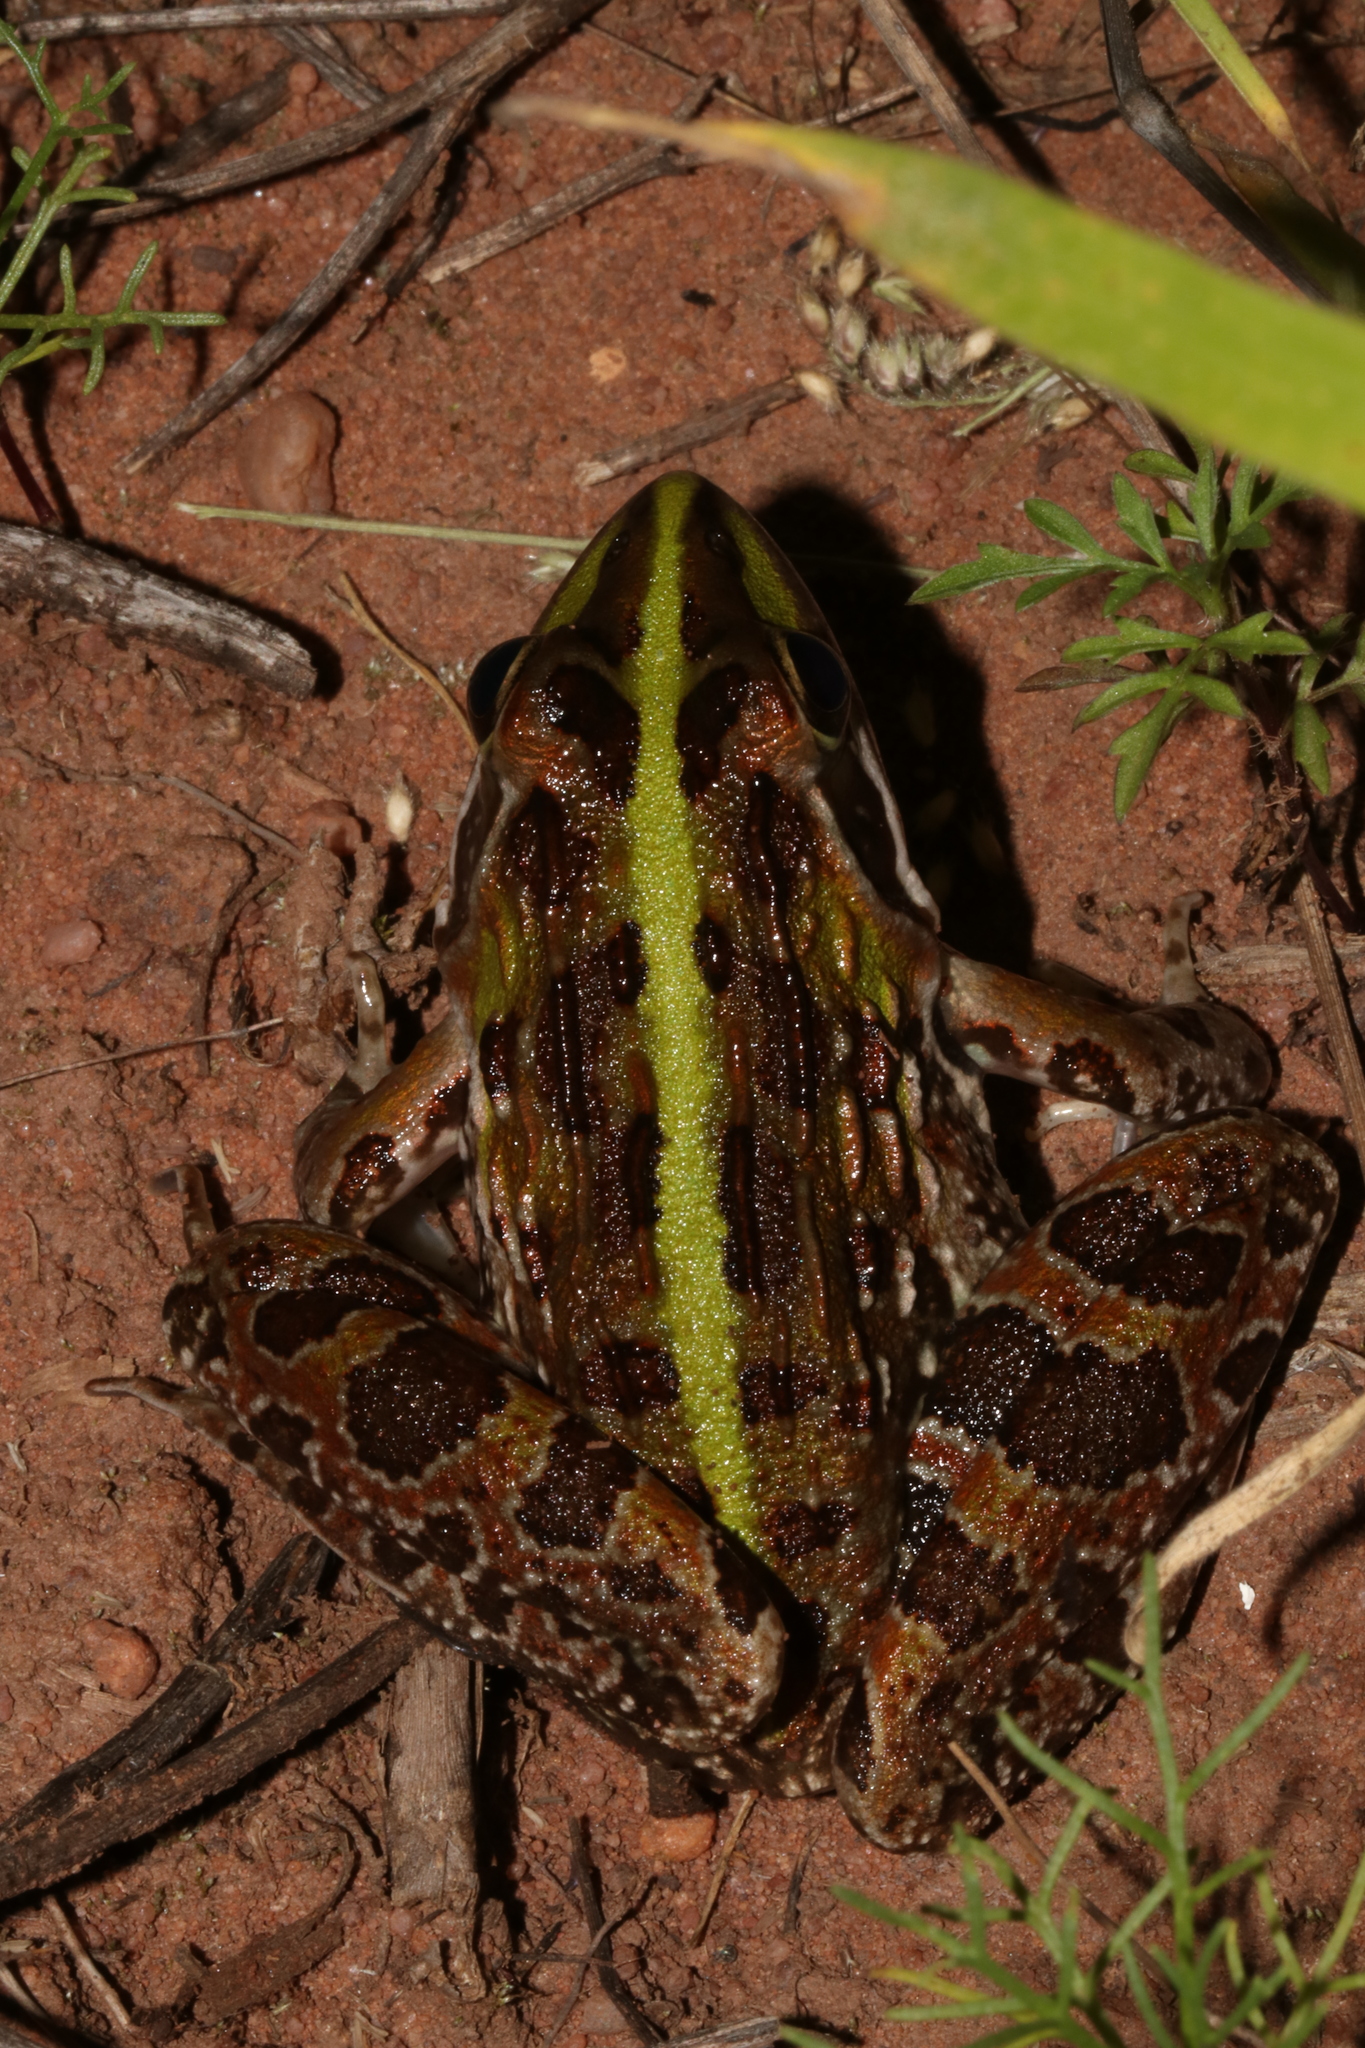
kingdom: Animalia
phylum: Chordata
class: Amphibia
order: Anura
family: Pyxicephalidae
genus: Amietia
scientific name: Amietia delalandii
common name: Delalande's river frog
